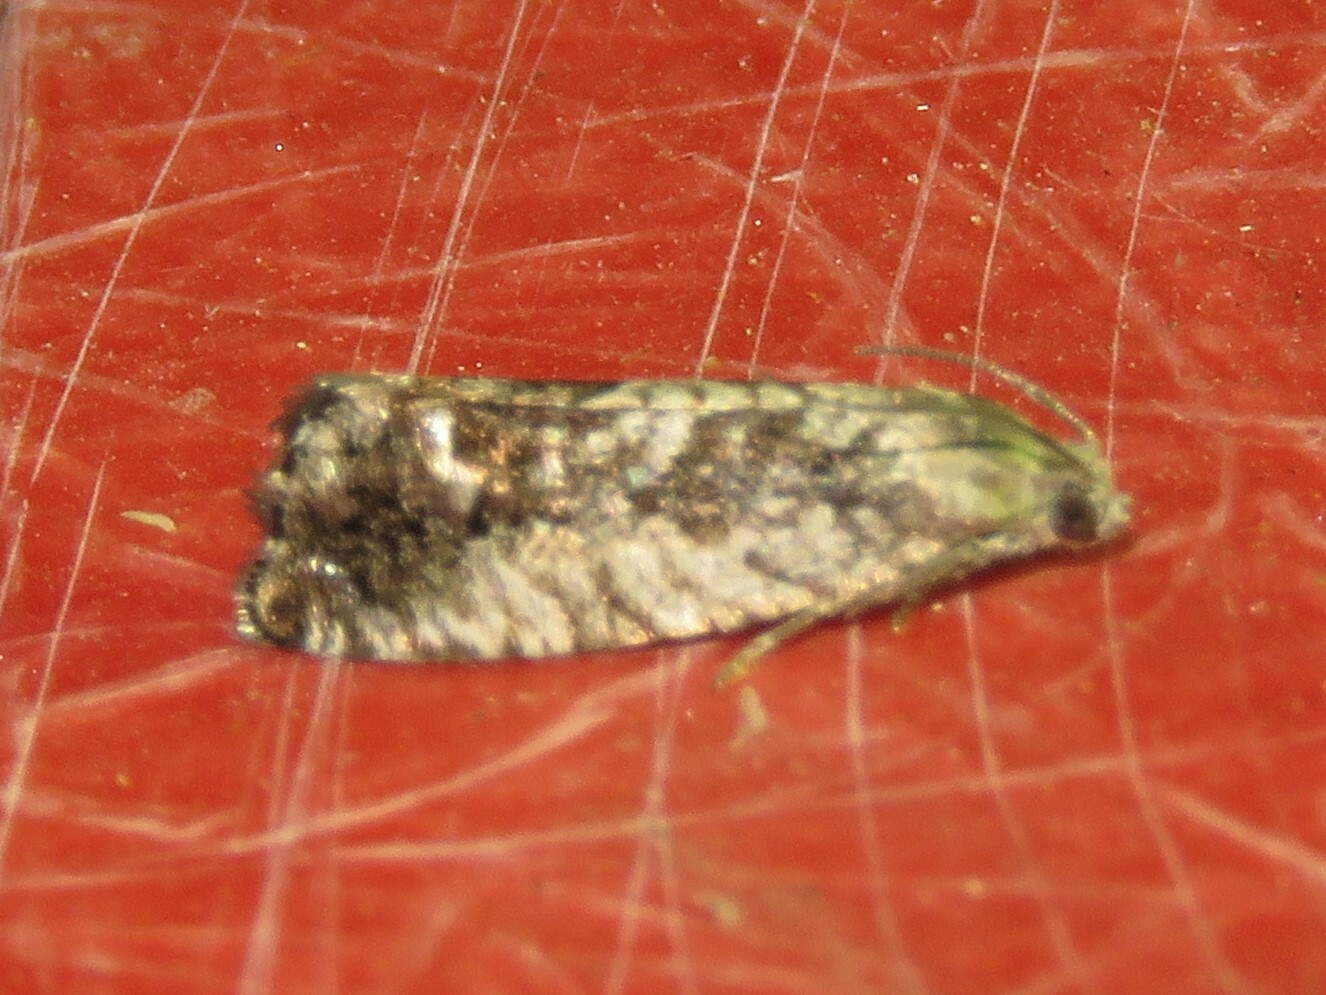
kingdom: Animalia
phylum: Arthropoda
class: Insecta
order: Lepidoptera
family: Tortricidae
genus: Cydia
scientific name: Cydia populana
